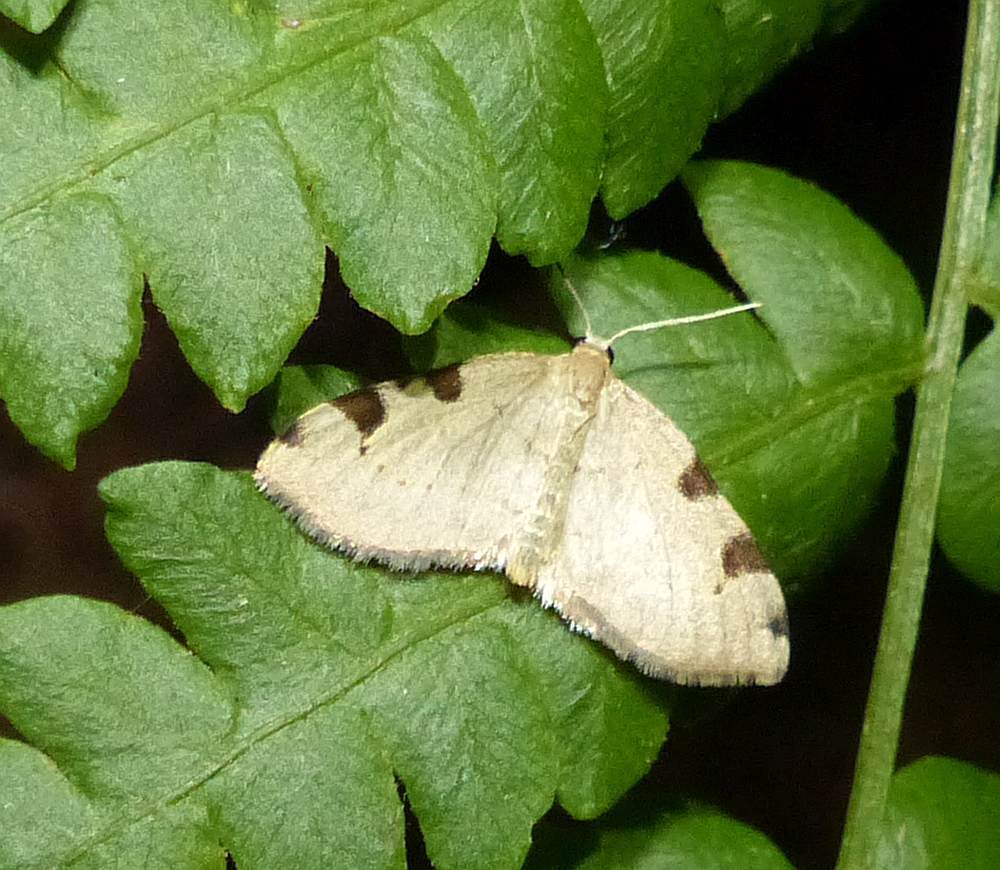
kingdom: Animalia
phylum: Arthropoda
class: Insecta
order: Lepidoptera
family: Geometridae
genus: Heterophleps
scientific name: Heterophleps triguttaria
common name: Three-spotted fillip
